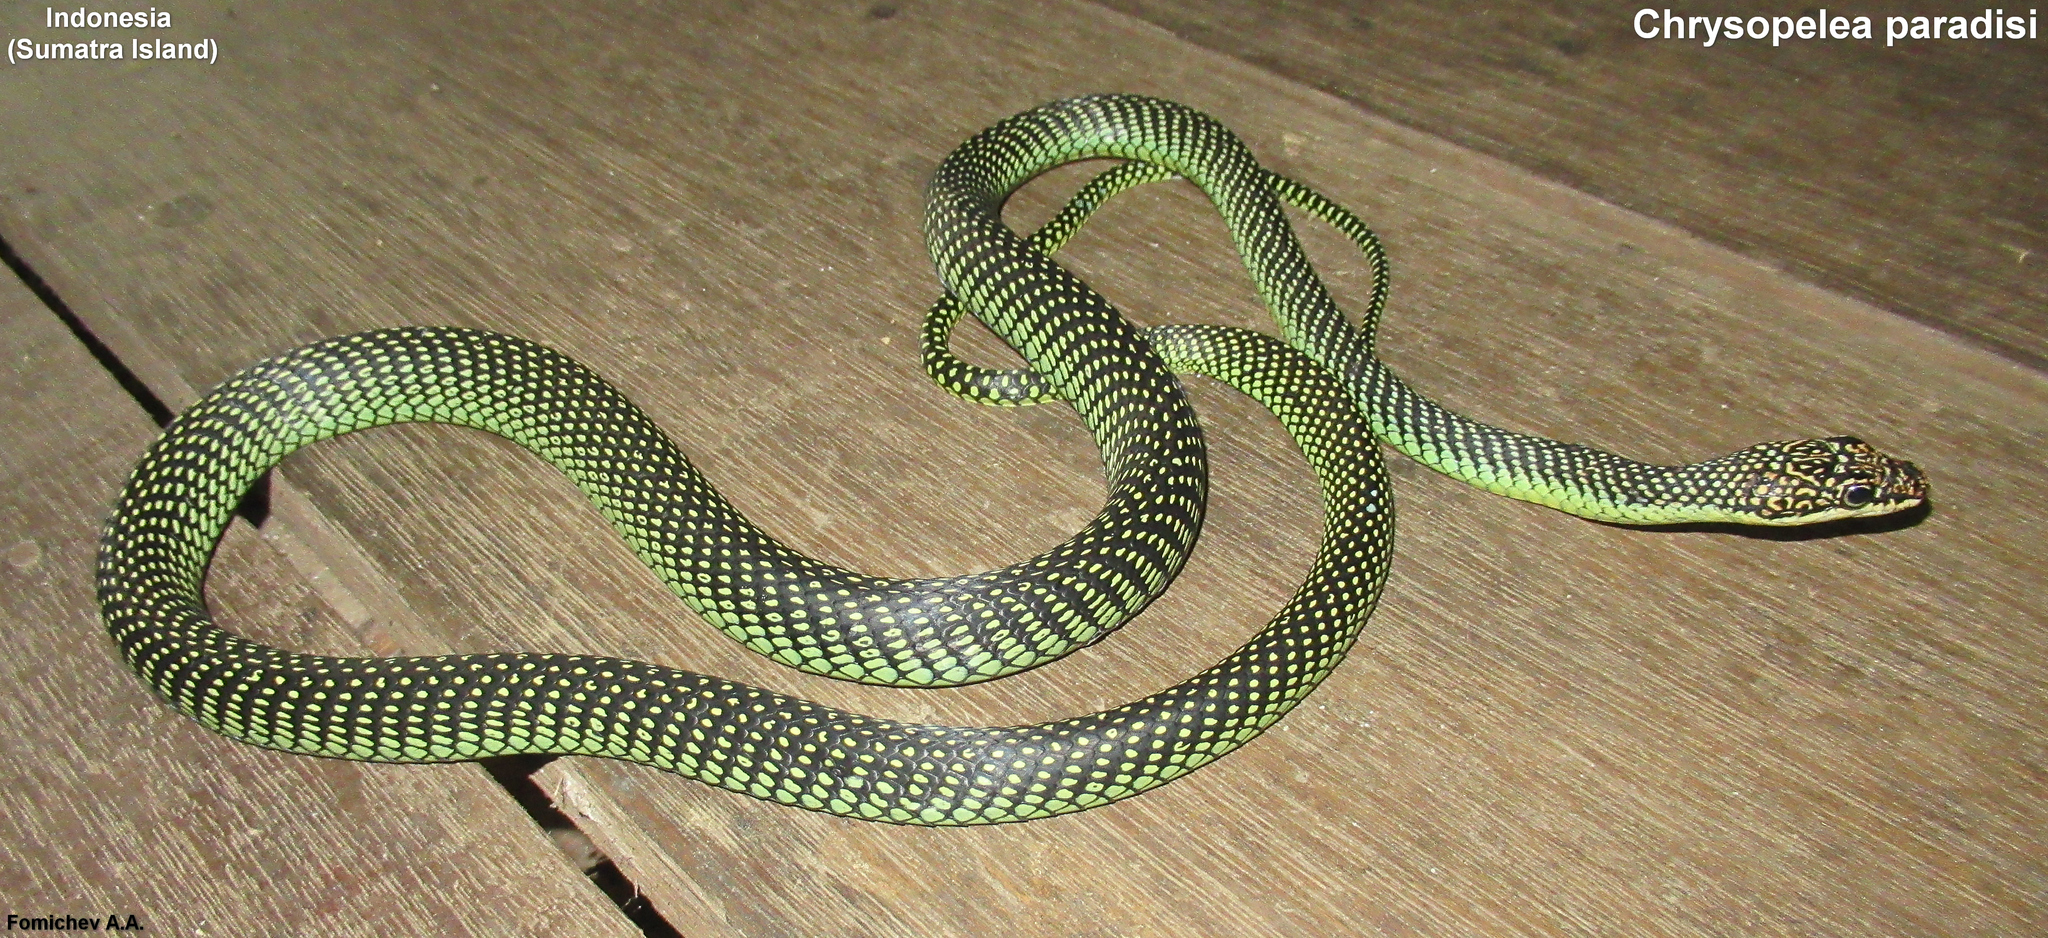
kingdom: Animalia
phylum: Chordata
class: Squamata
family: Colubridae
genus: Chrysopelea
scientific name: Chrysopelea paradisi
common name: Paradise tree snake
